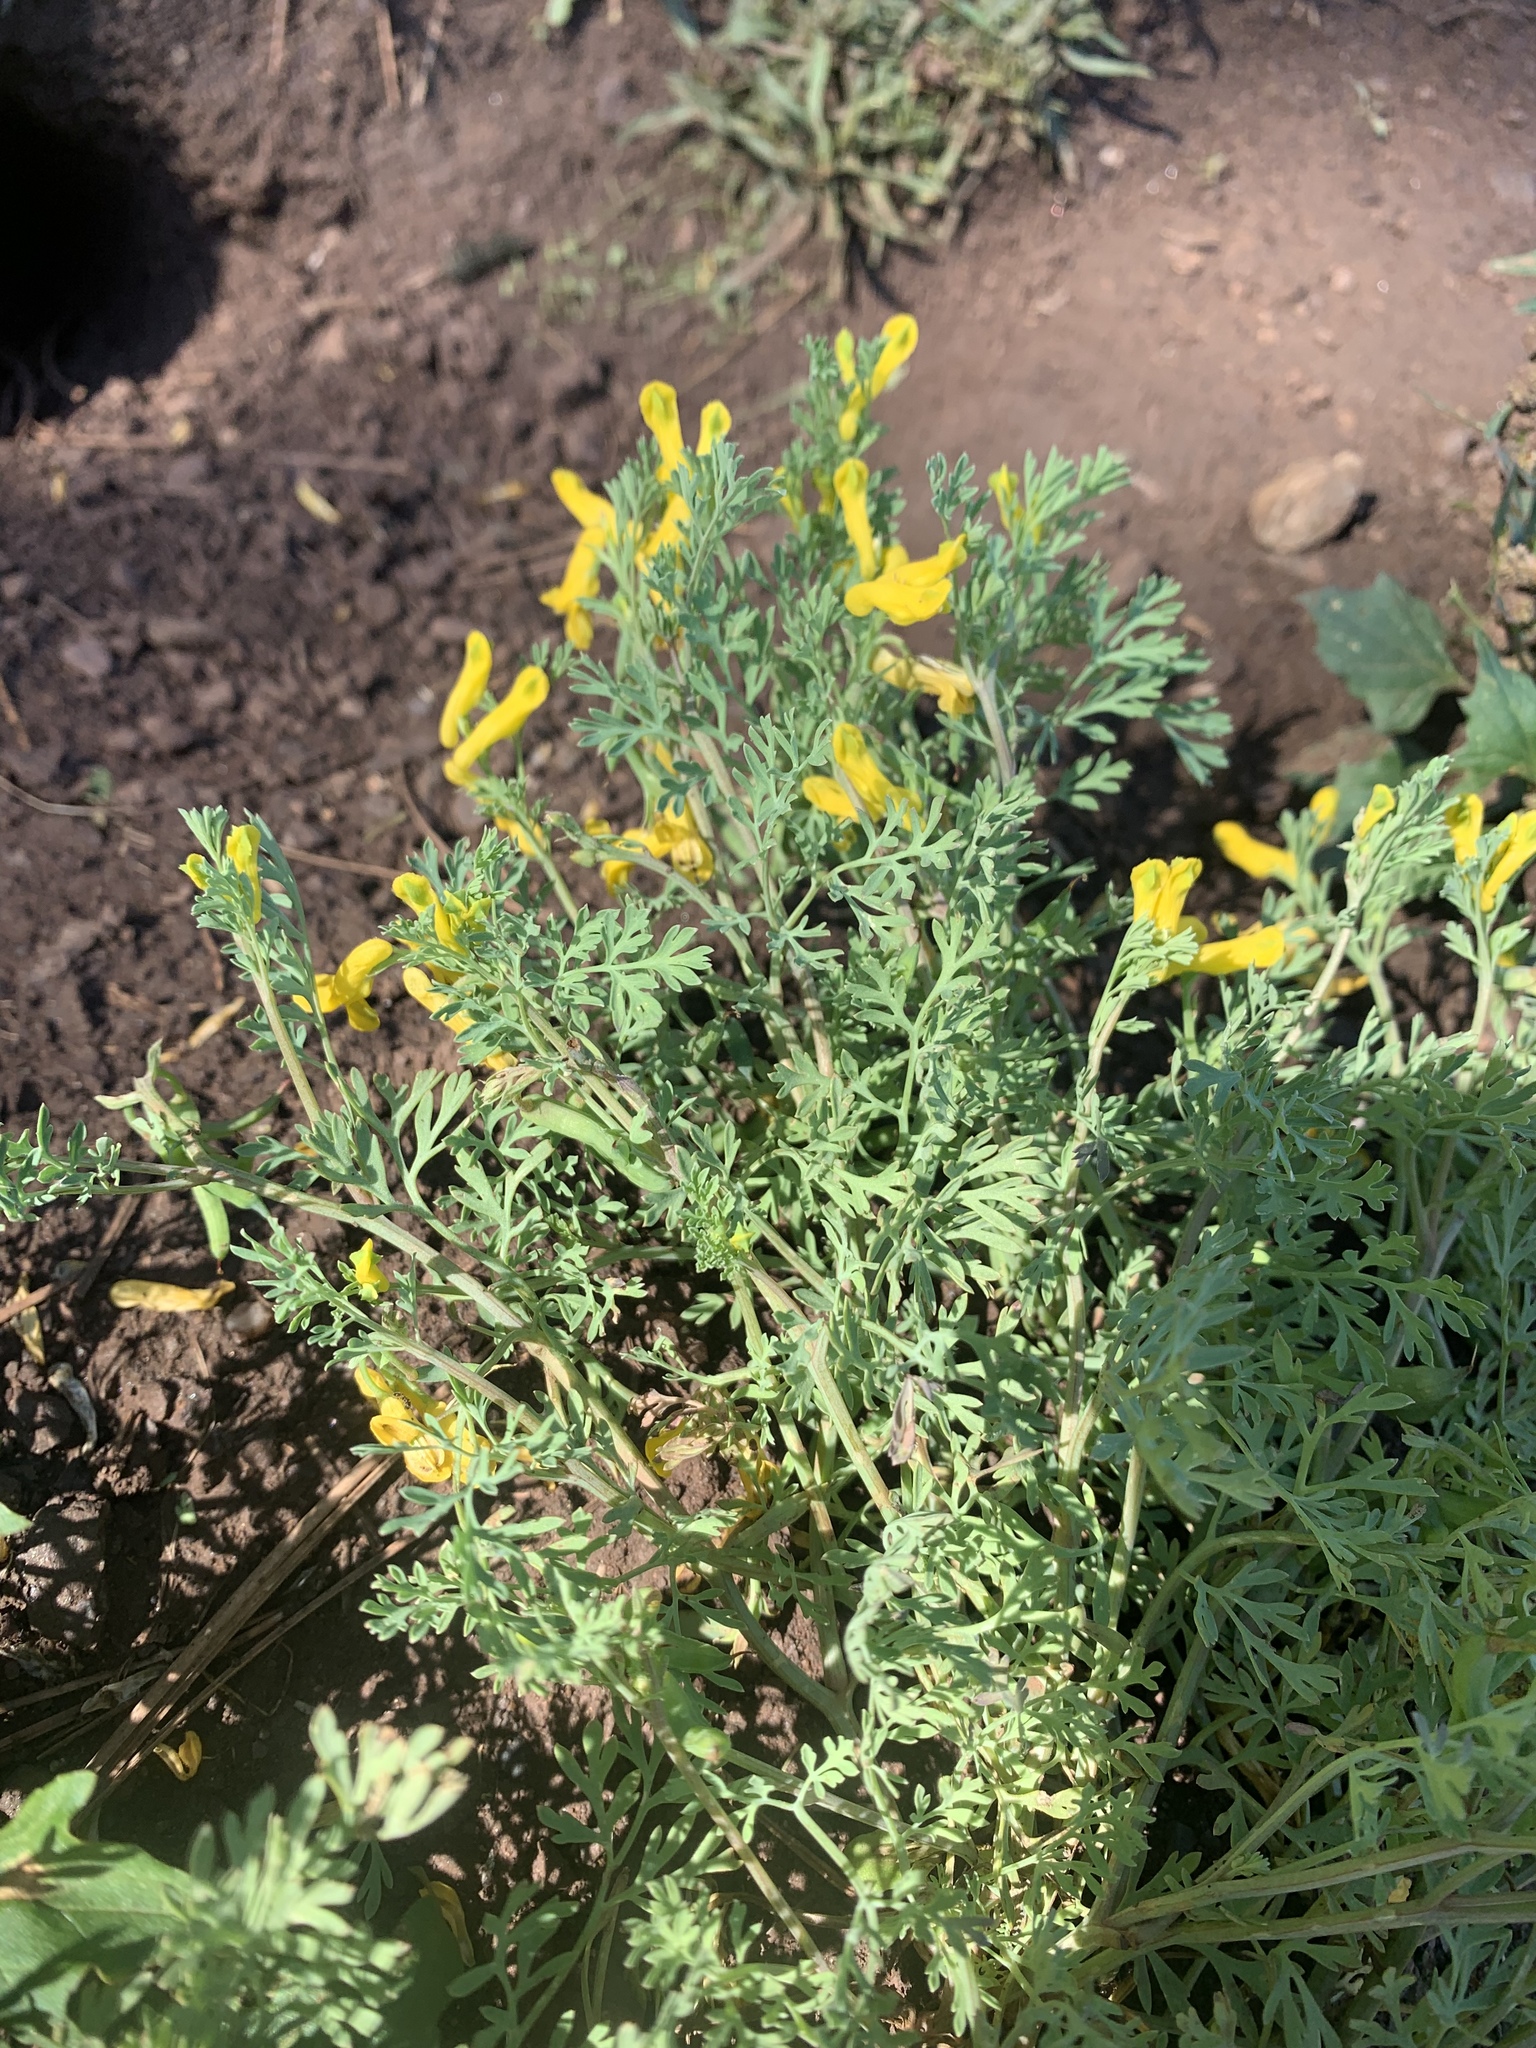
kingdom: Plantae
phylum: Tracheophyta
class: Magnoliopsida
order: Ranunculales
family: Papaveraceae
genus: Corydalis
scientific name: Corydalis aurea
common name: Golden corydalis
